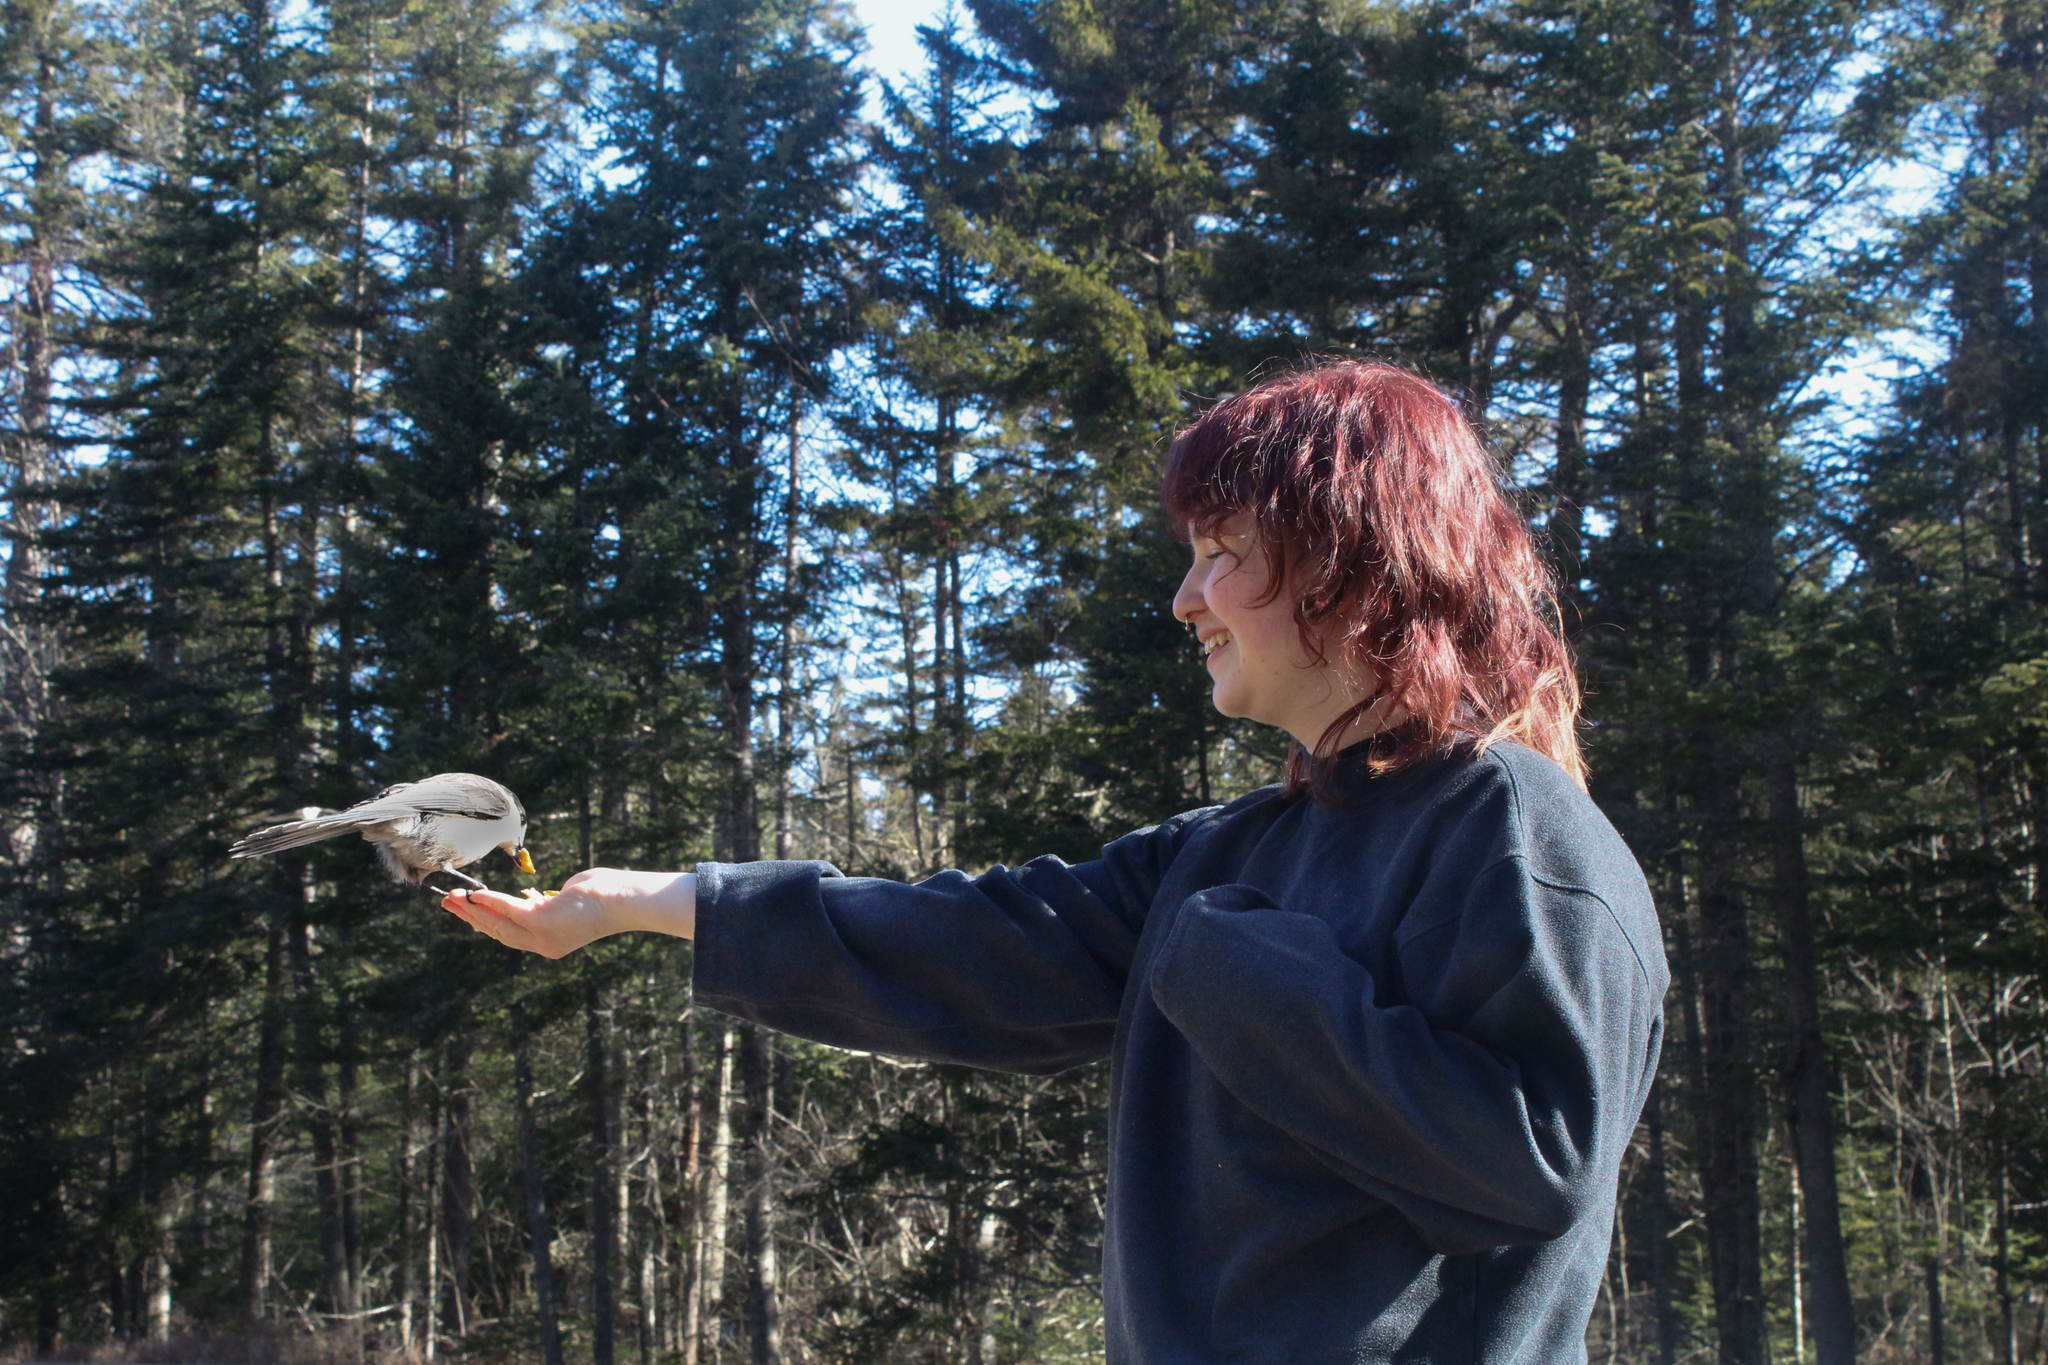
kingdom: Animalia
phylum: Chordata
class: Aves
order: Passeriformes
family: Corvidae
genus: Perisoreus
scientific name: Perisoreus canadensis
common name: Gray jay
